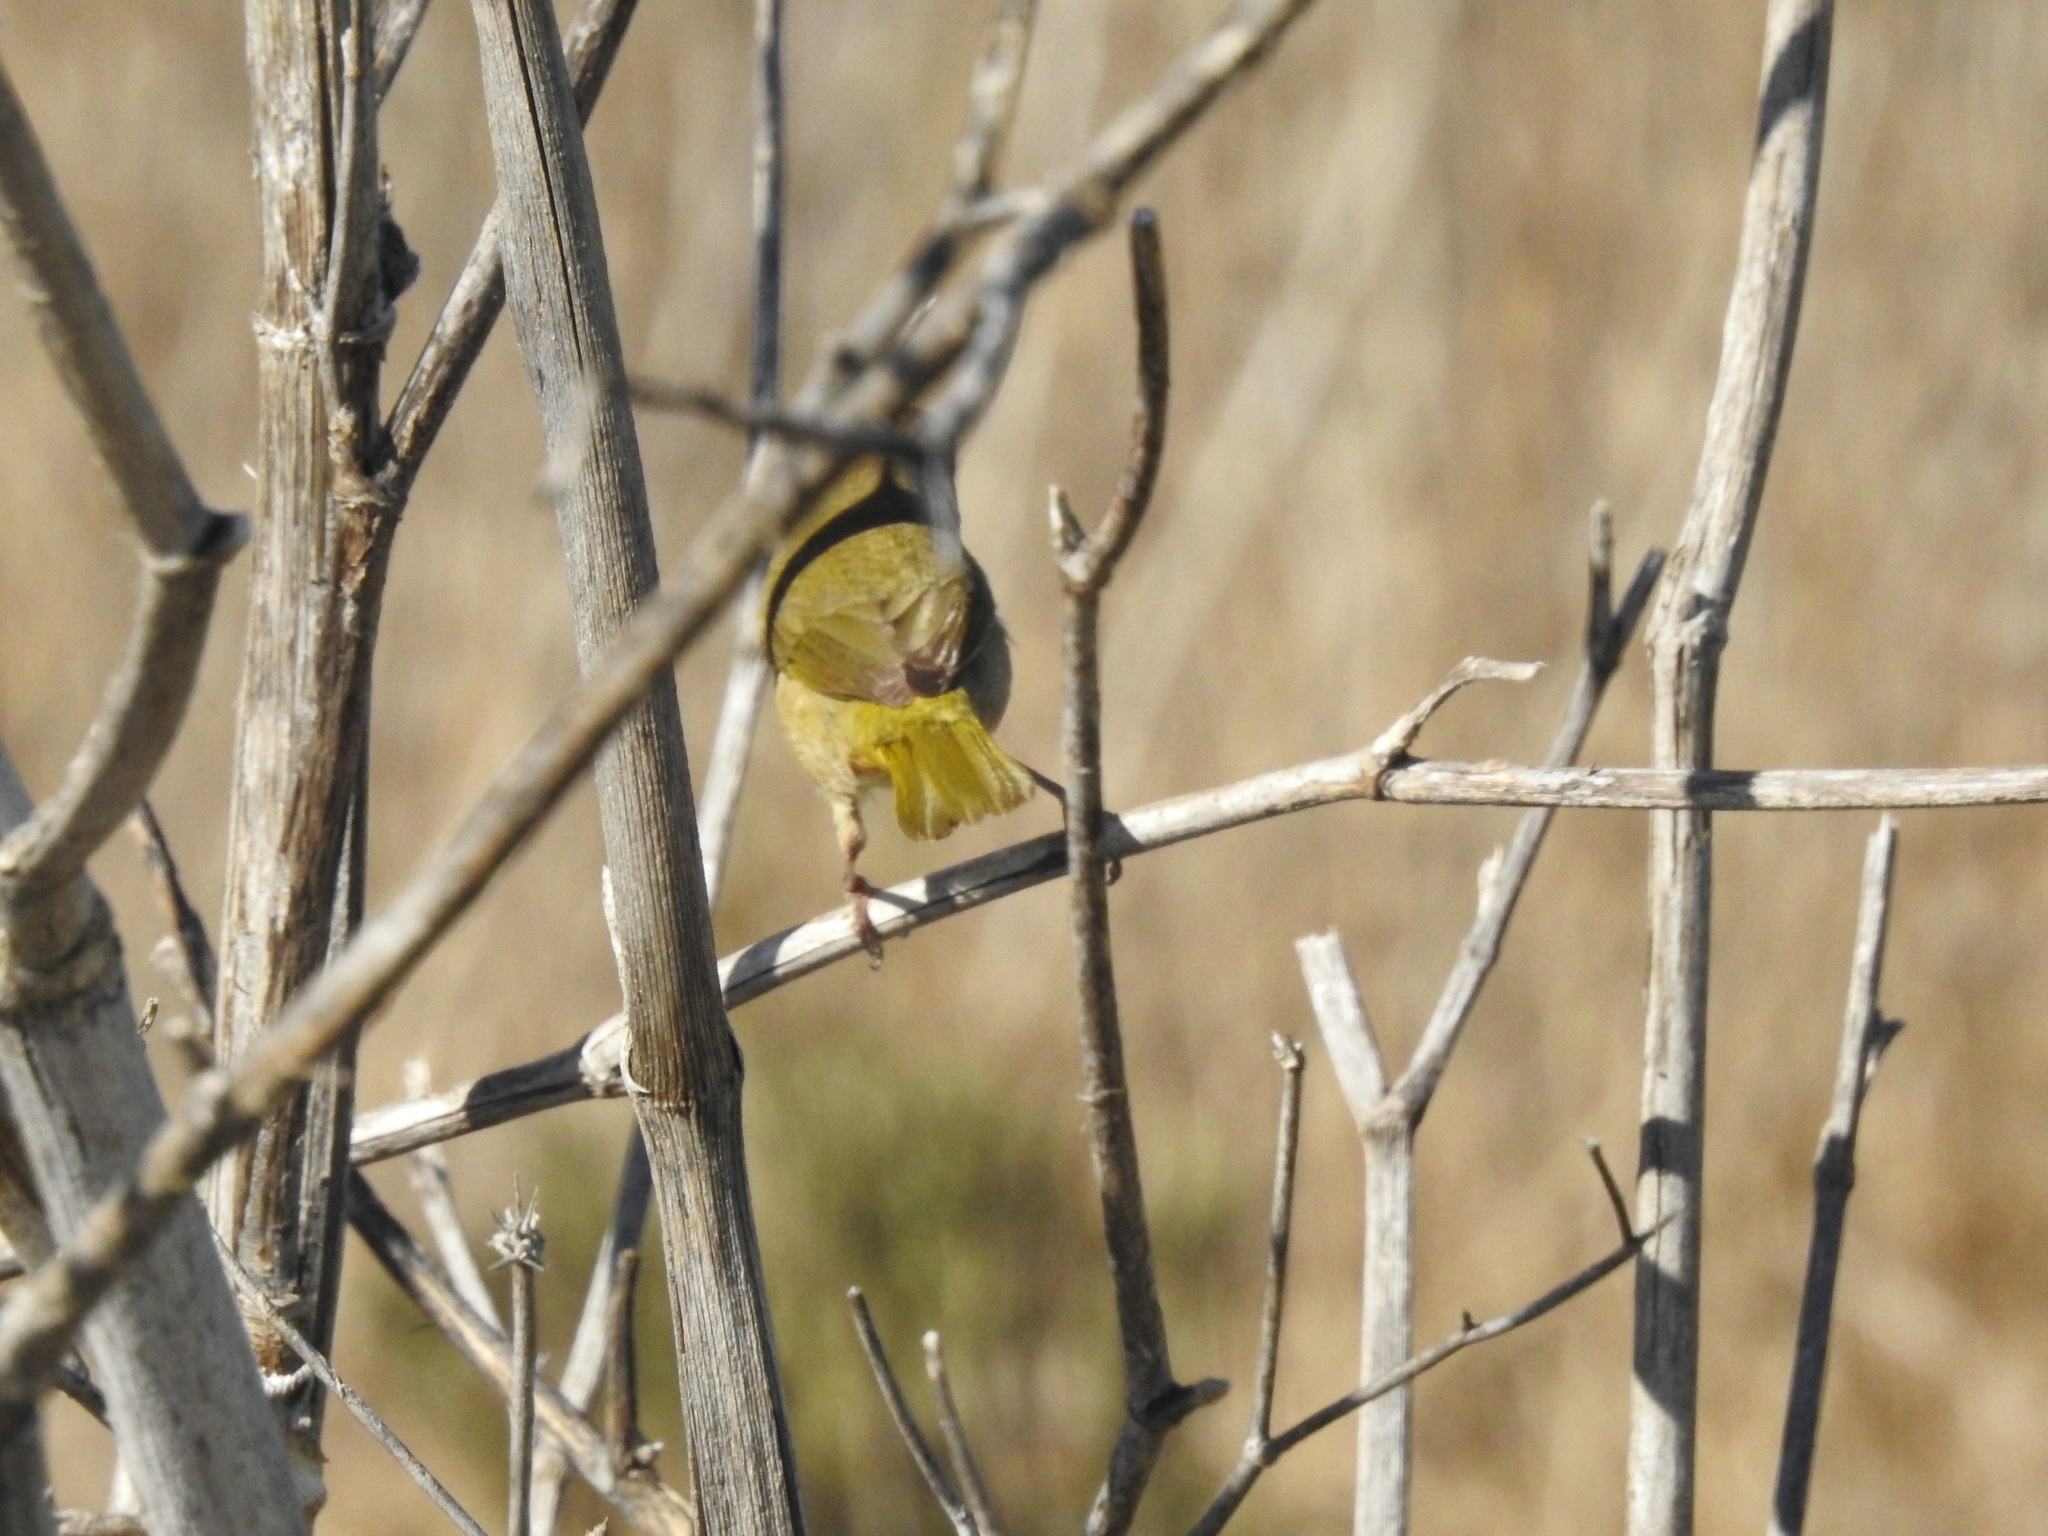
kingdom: Animalia
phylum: Chordata
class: Aves
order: Passeriformes
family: Parulidae
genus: Geothlypis
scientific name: Geothlypis trichas
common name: Common yellowthroat
